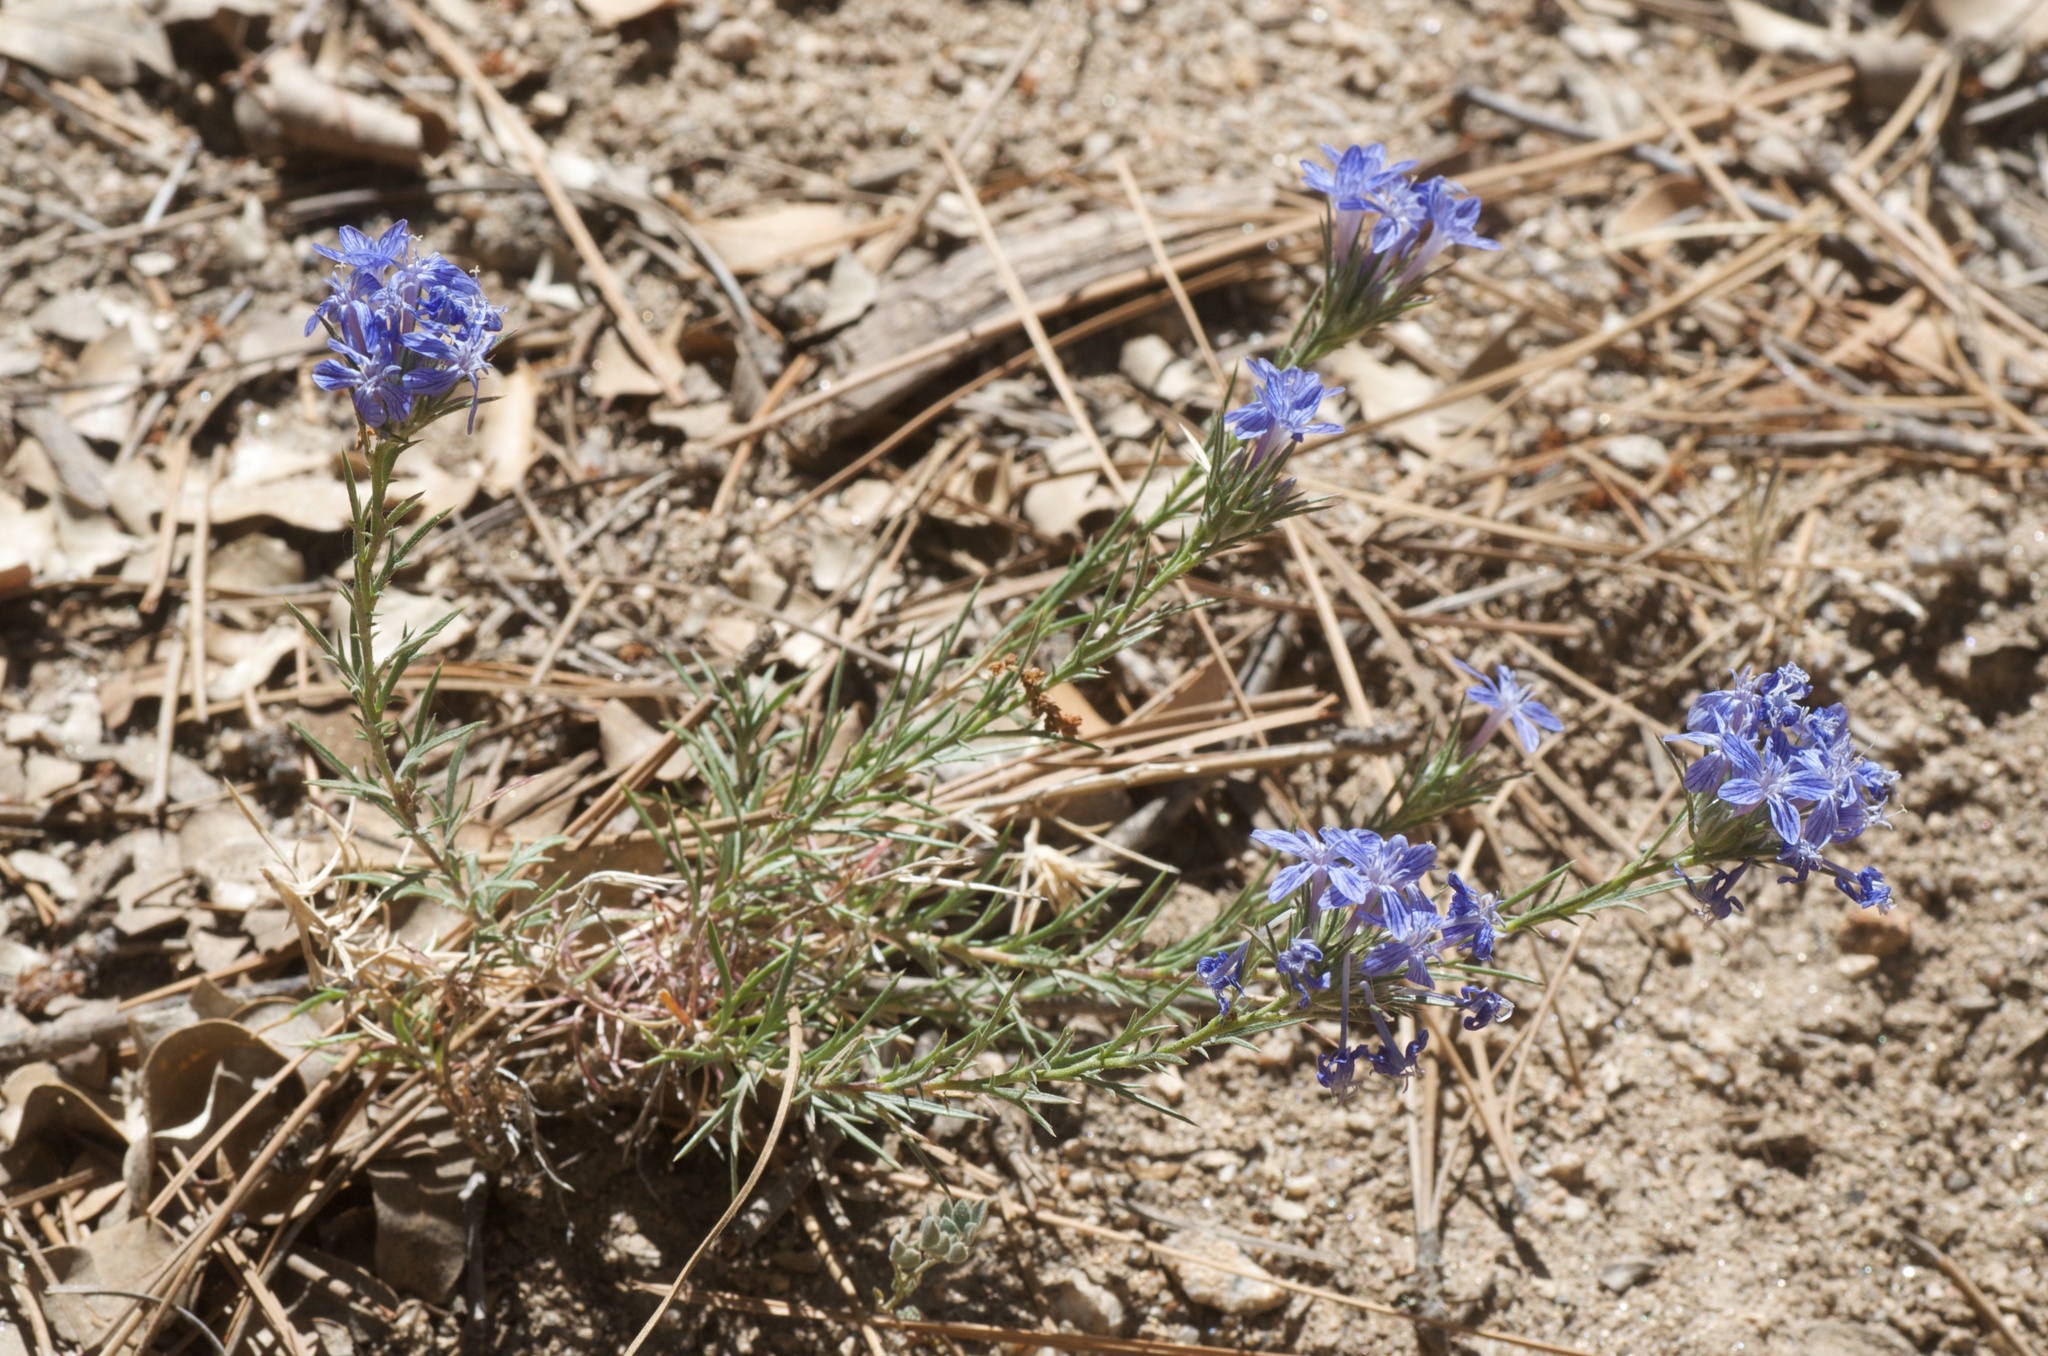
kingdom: Plantae
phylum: Tracheophyta
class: Magnoliopsida
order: Ericales
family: Polemoniaceae
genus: Eriastrum
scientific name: Eriastrum densifolium
